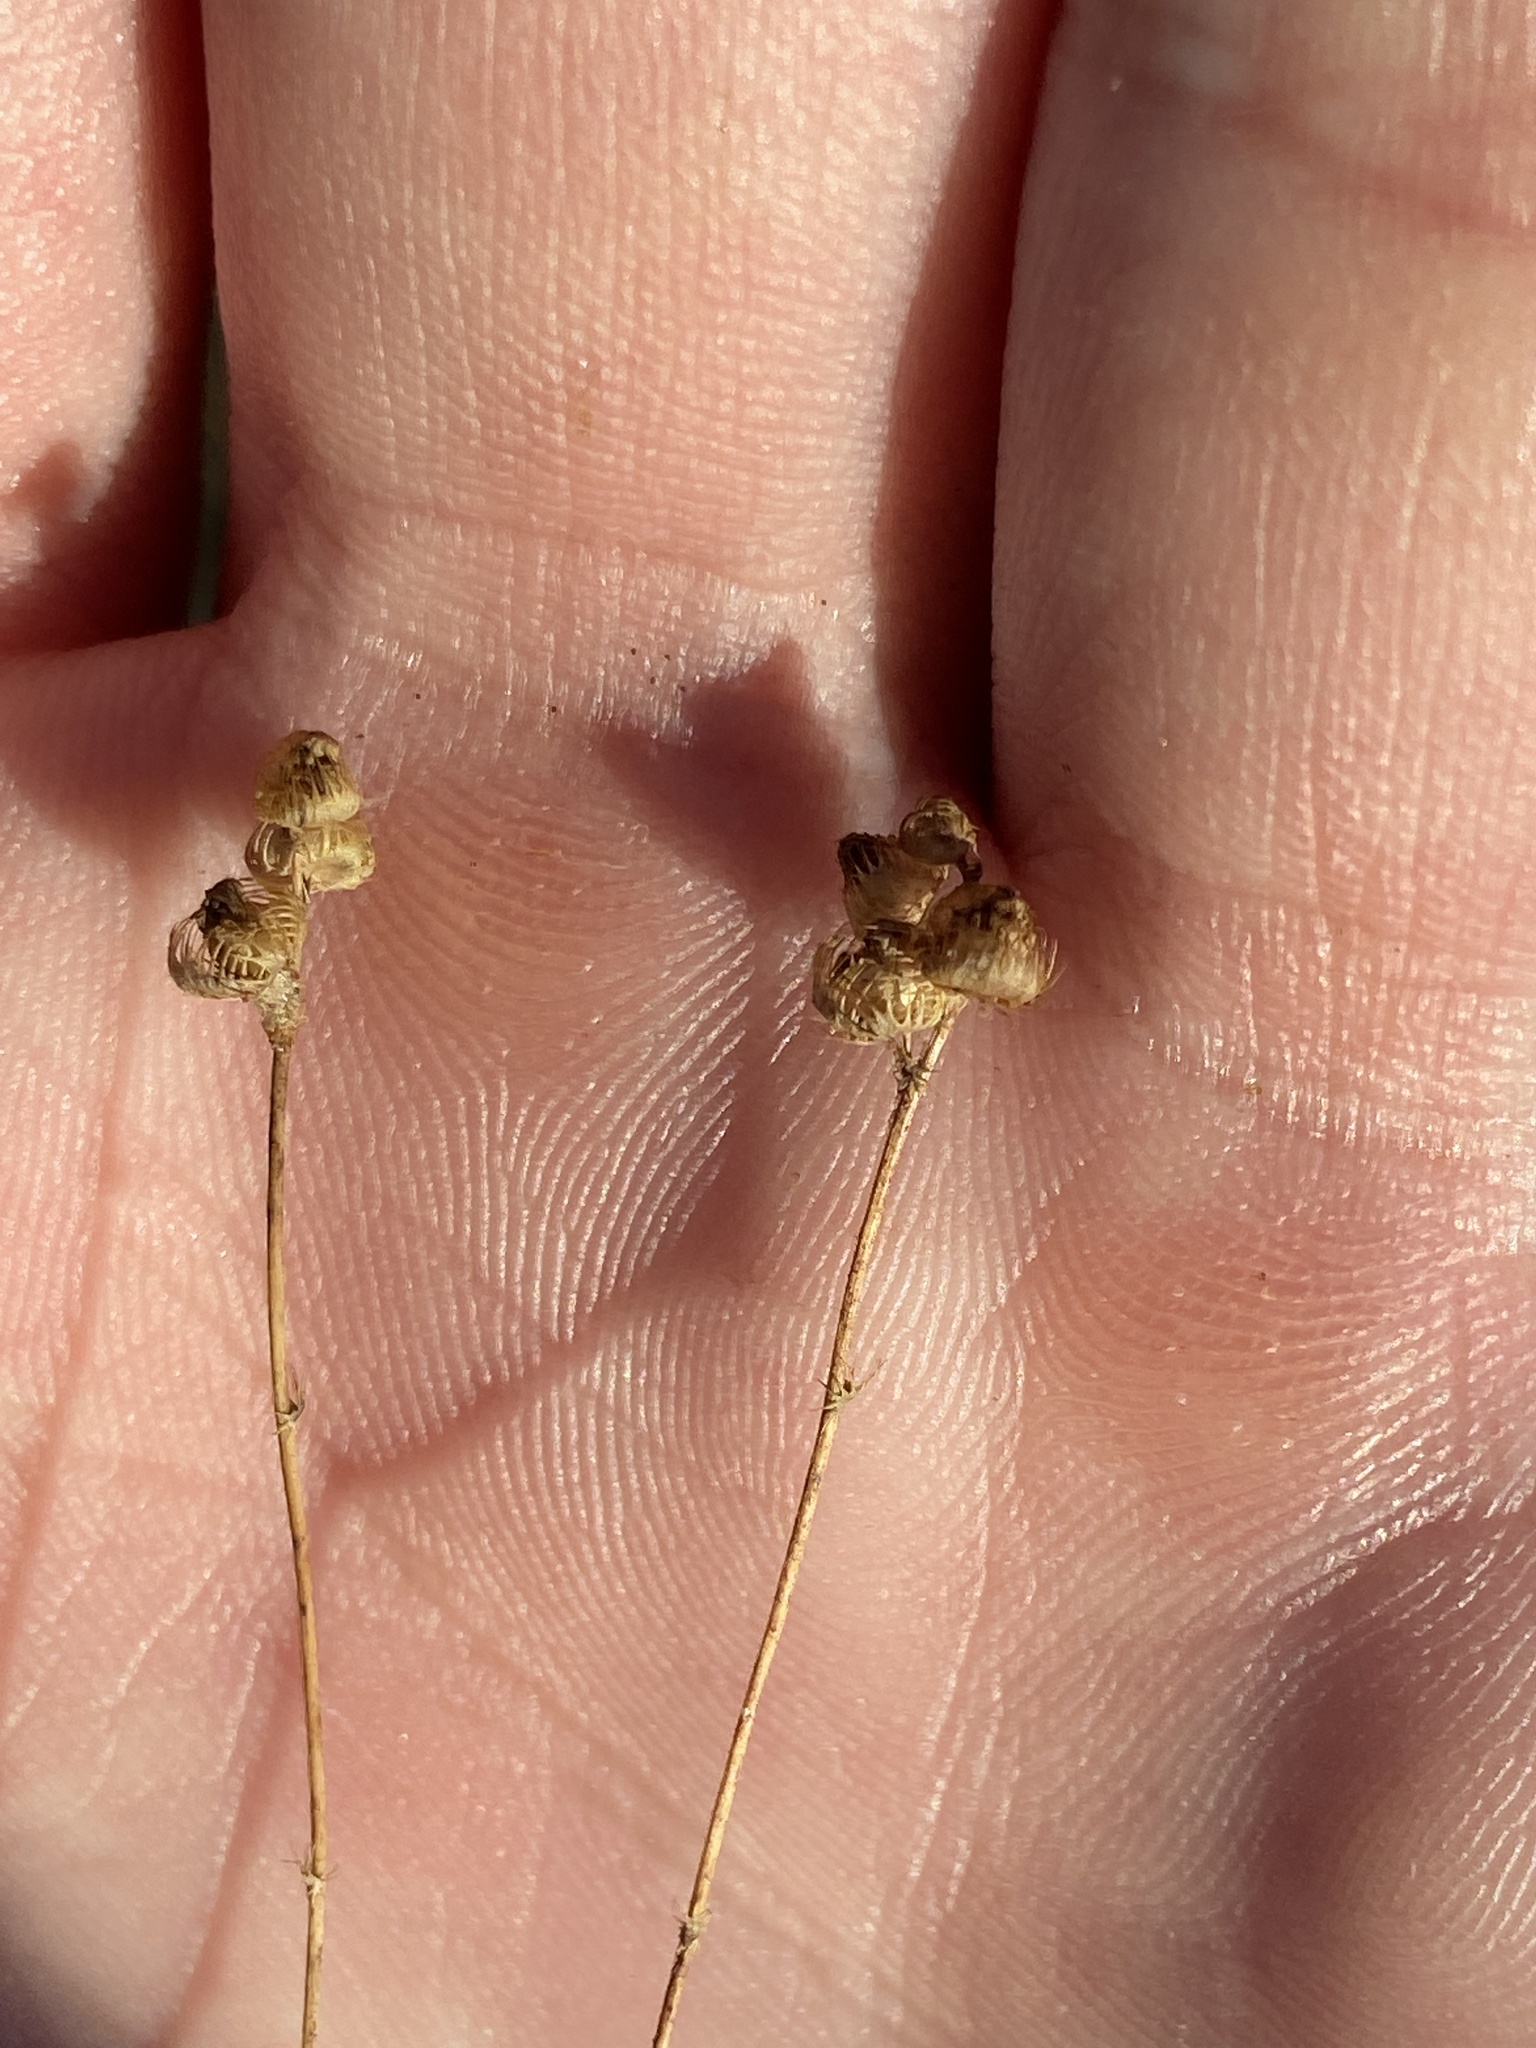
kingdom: Plantae
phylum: Tracheophyta
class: Magnoliopsida
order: Lamiales
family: Lentibulariaceae
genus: Utricularia
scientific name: Utricularia simulans
